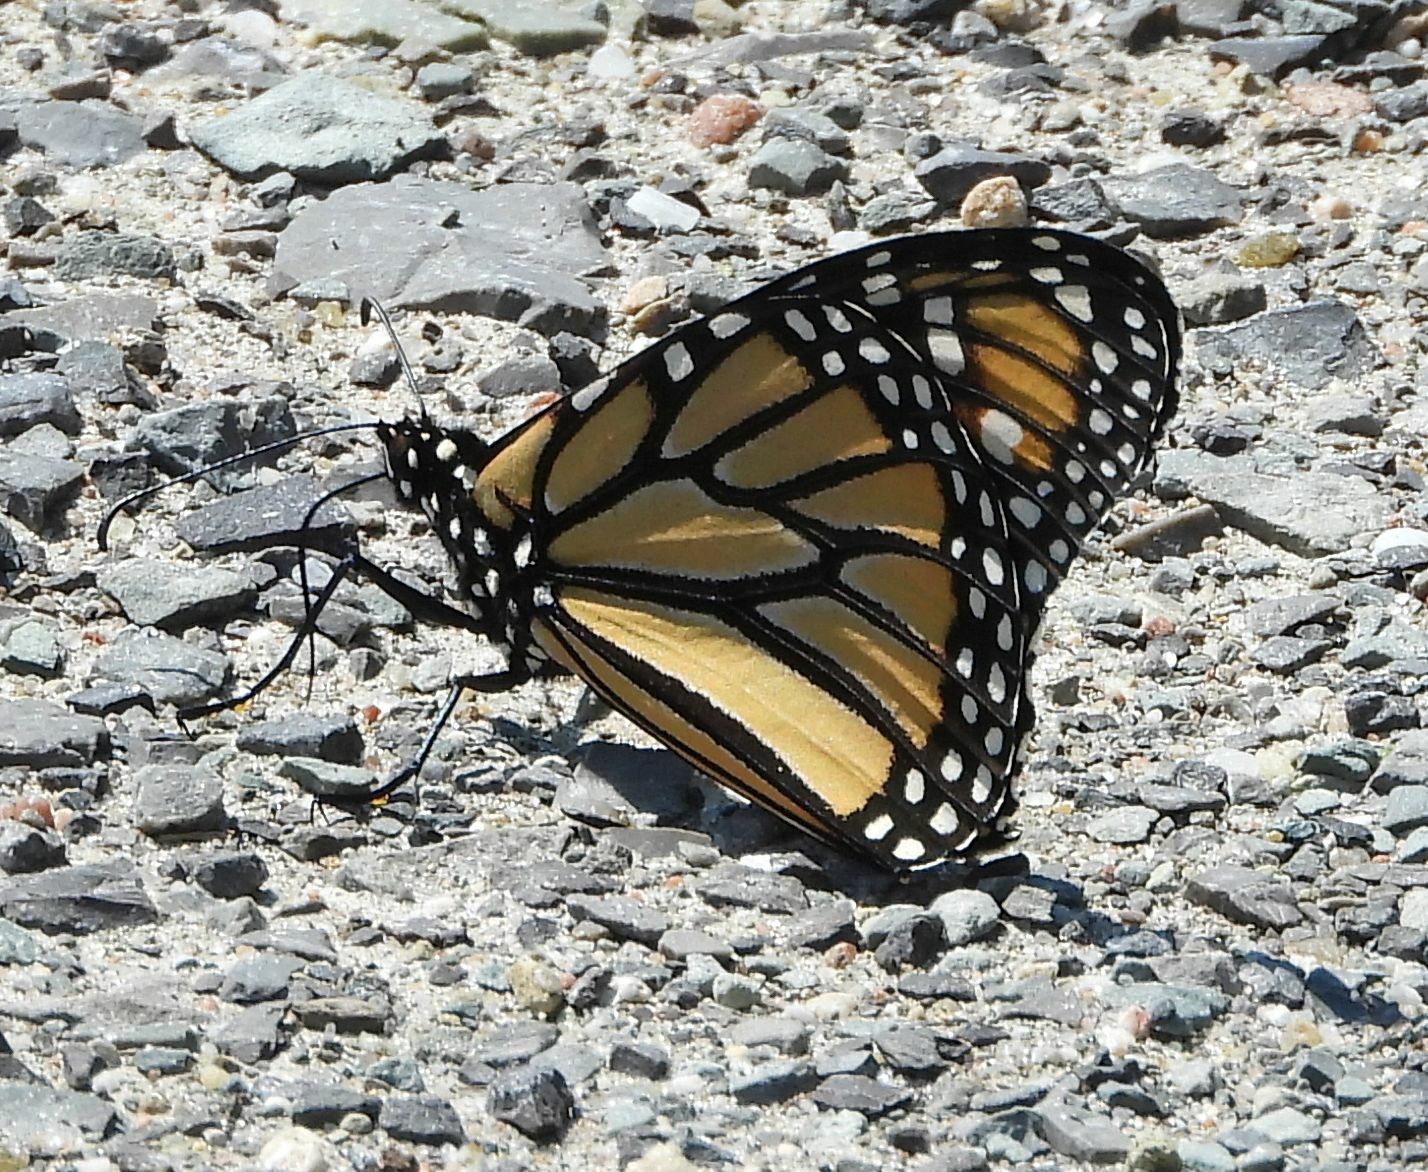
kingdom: Animalia
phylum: Arthropoda
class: Insecta
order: Lepidoptera
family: Nymphalidae
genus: Danaus
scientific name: Danaus plexippus
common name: Monarch
